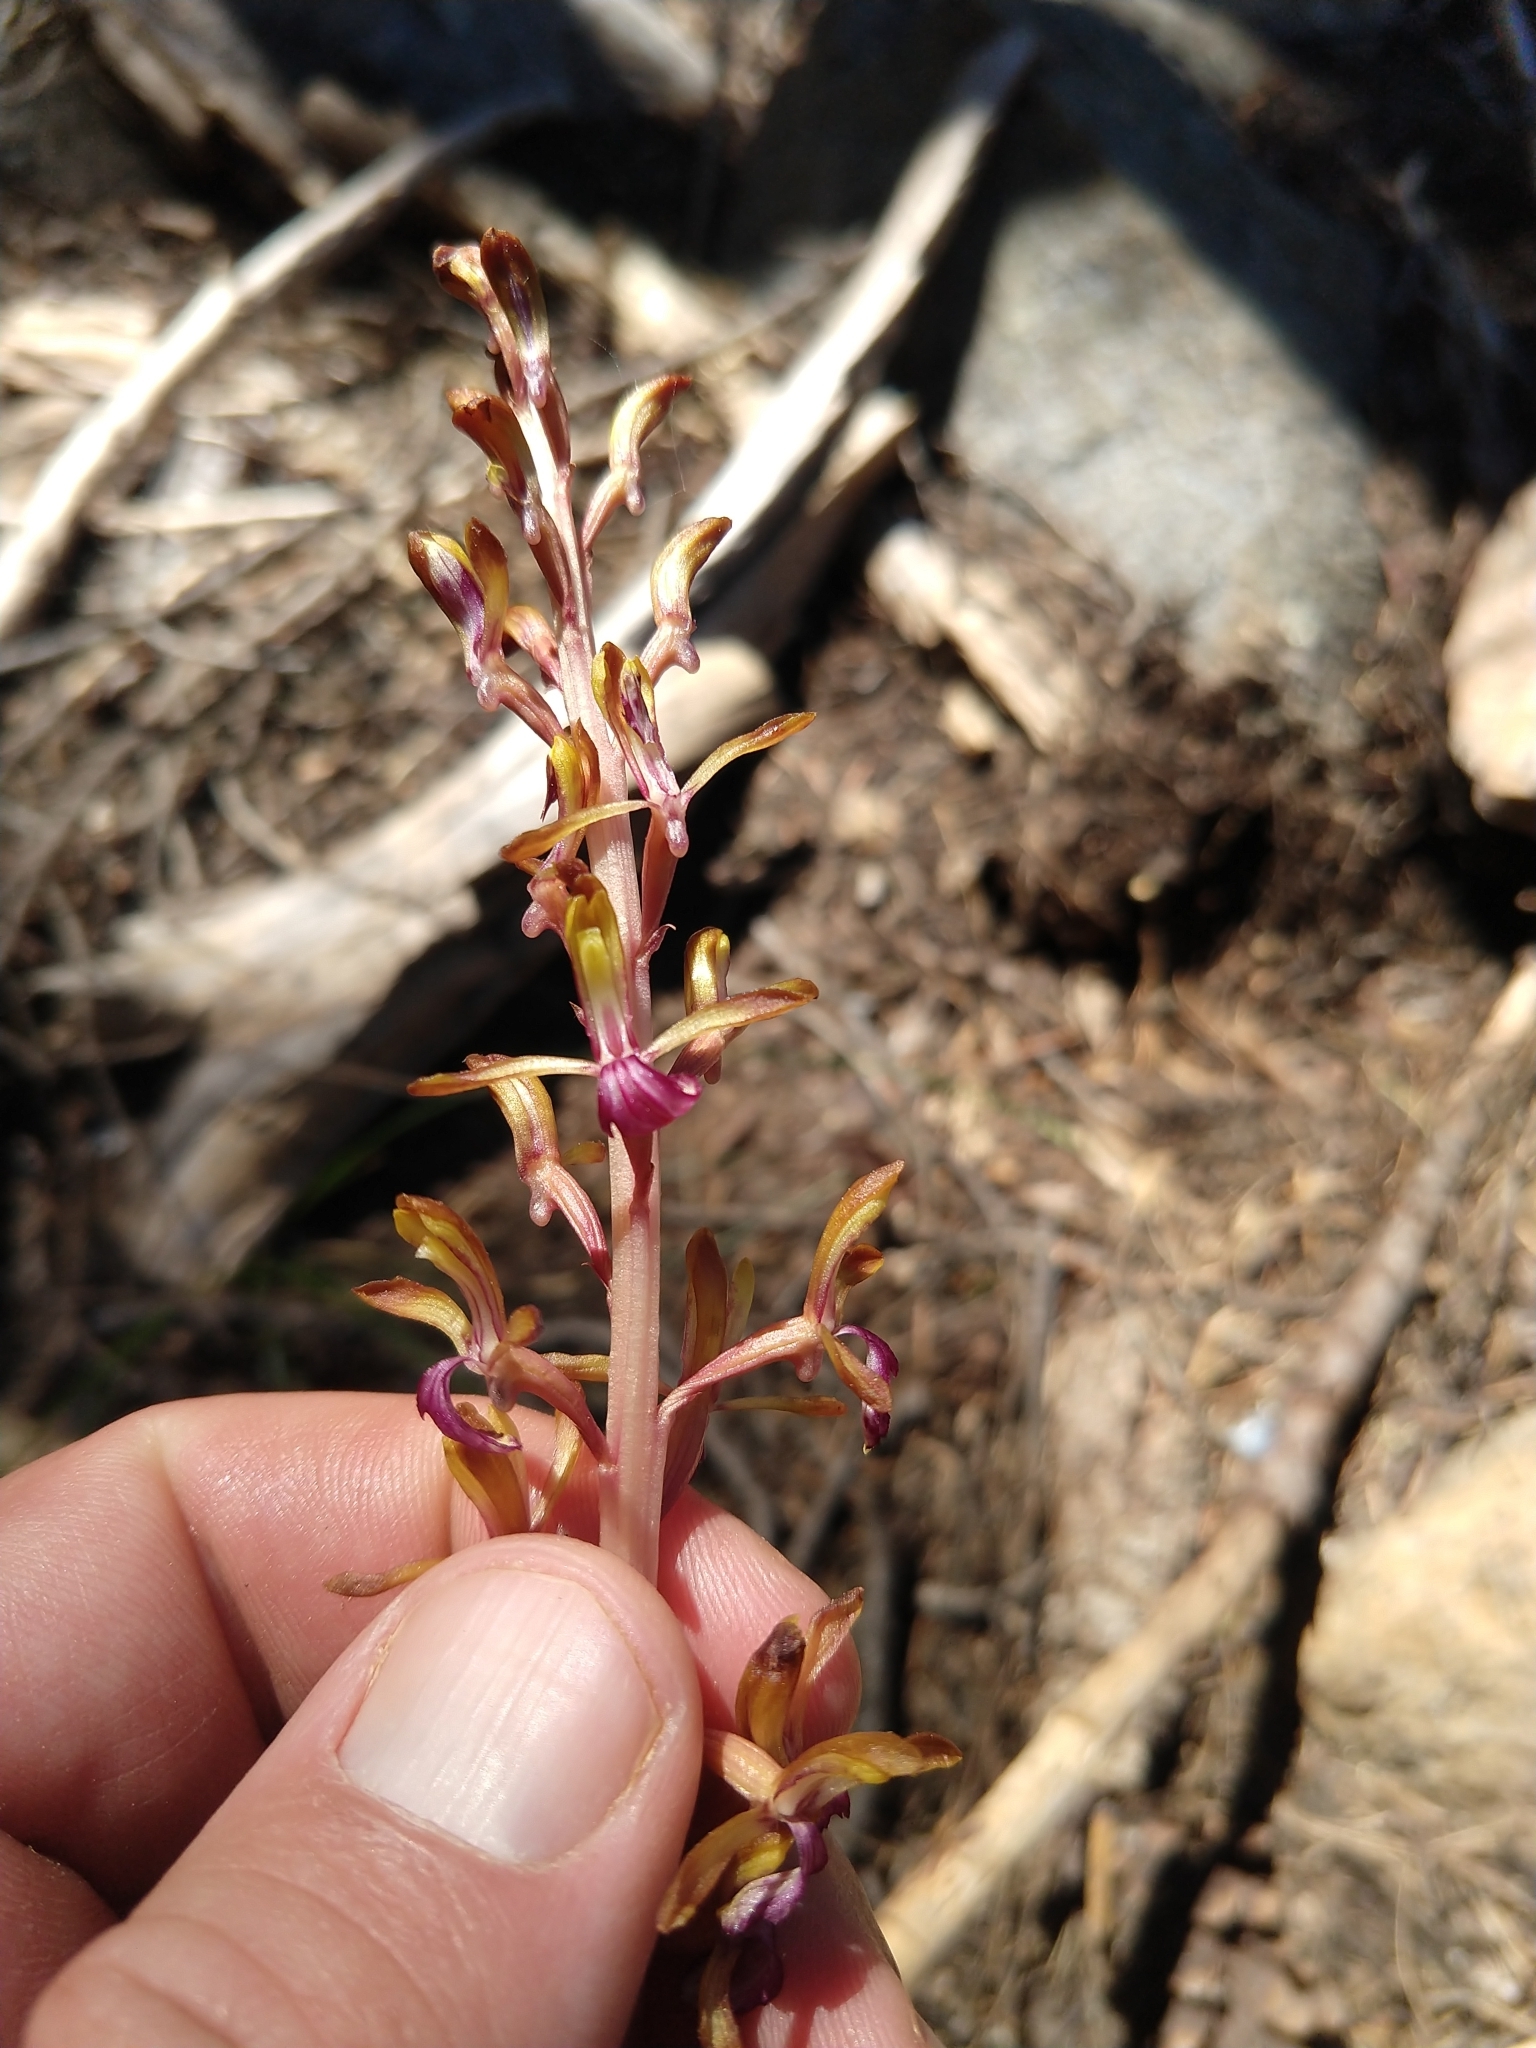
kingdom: Plantae
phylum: Tracheophyta
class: Liliopsida
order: Asparagales
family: Orchidaceae
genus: Corallorhiza
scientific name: Corallorhiza mertensiana
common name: Pacific coralroot
